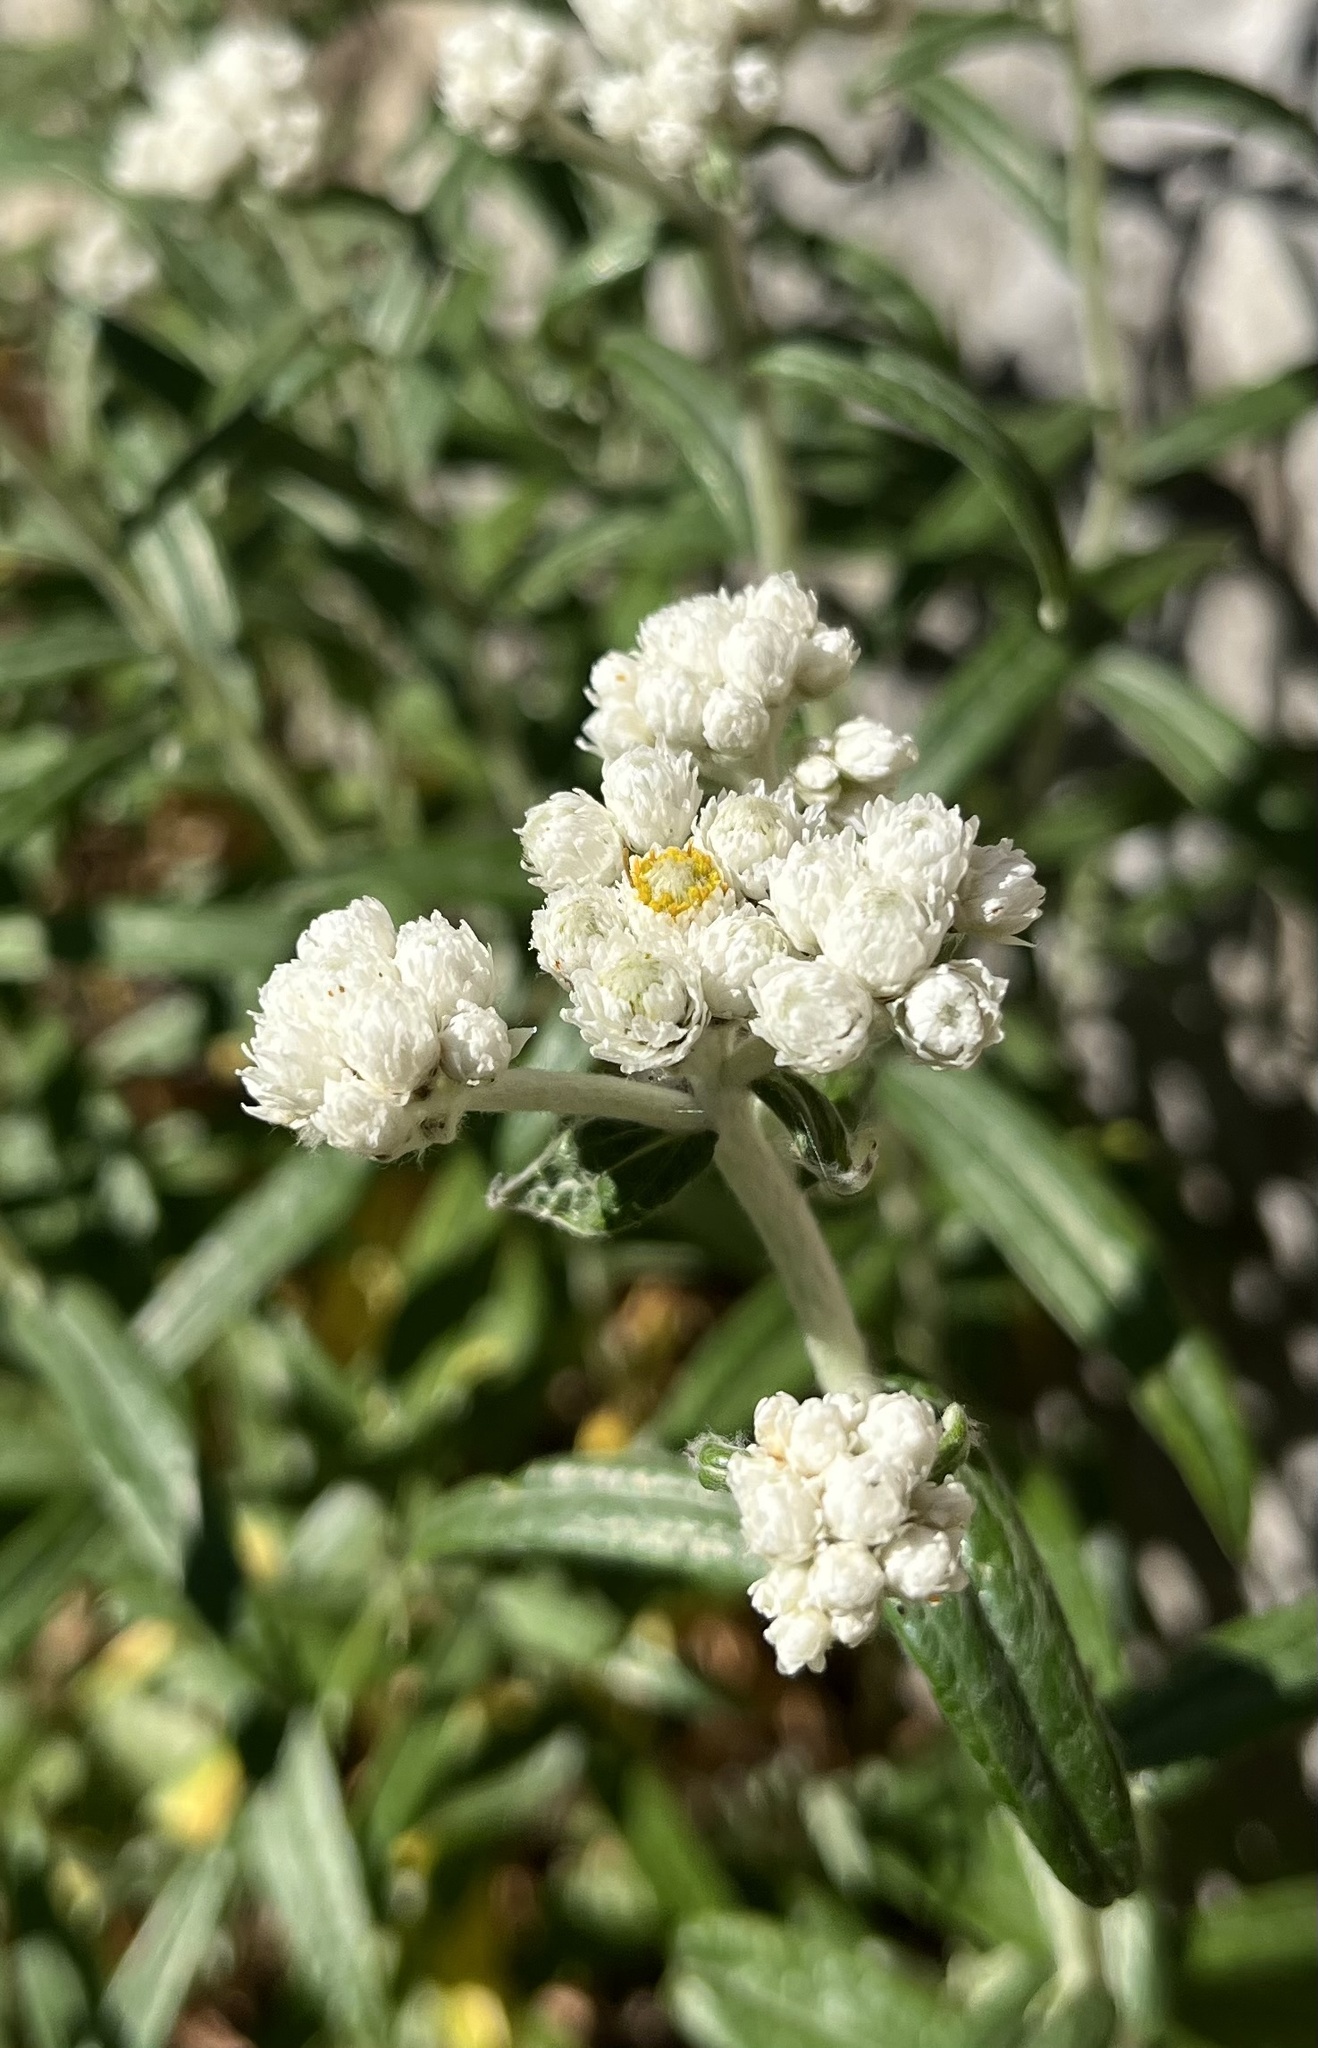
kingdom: Plantae
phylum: Tracheophyta
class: Magnoliopsida
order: Asterales
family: Asteraceae
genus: Anaphalis
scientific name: Anaphalis margaritacea
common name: Pearly everlasting
